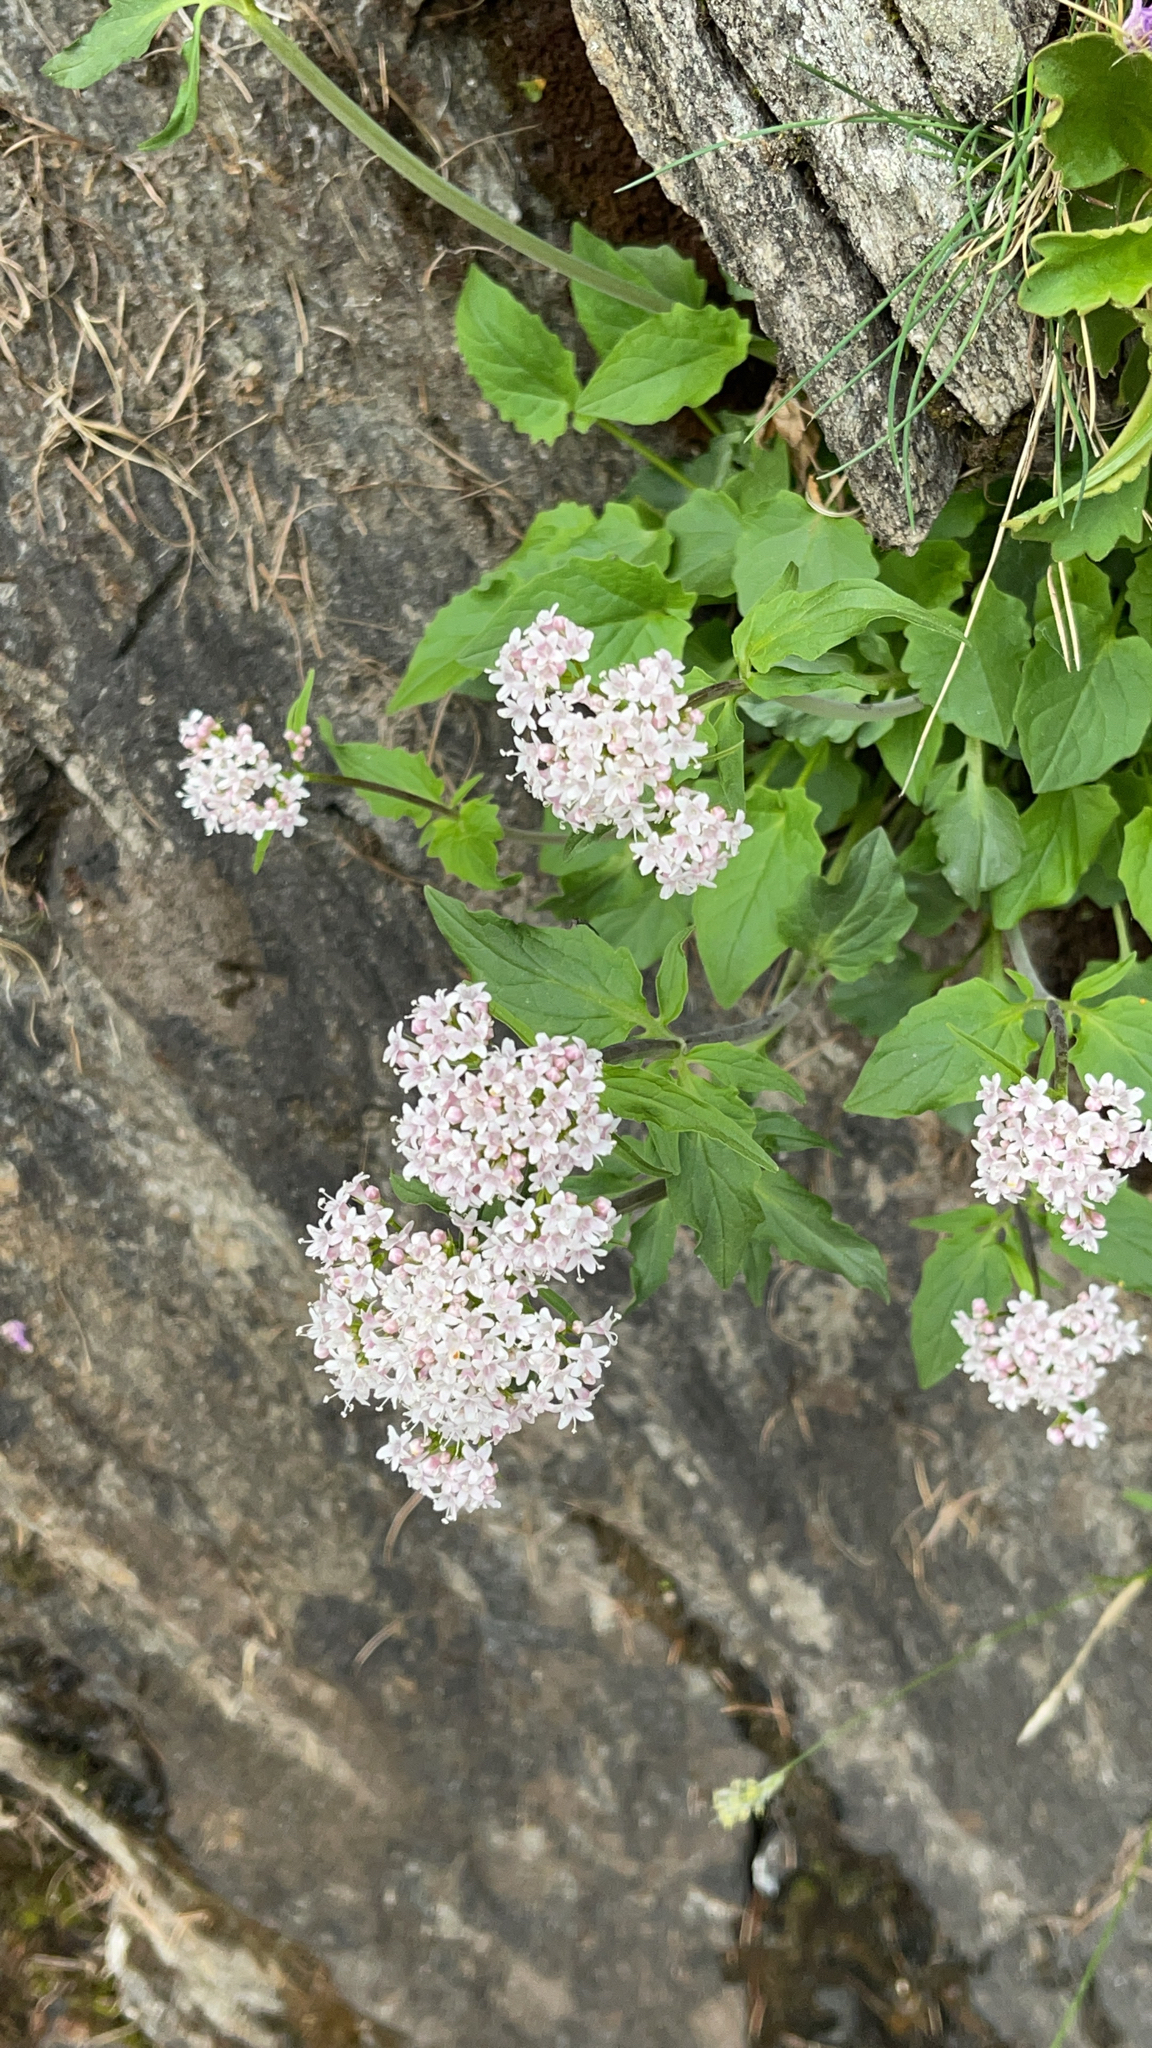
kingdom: Plantae
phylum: Tracheophyta
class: Magnoliopsida
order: Dipsacales
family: Caprifoliaceae
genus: Valeriana
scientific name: Valeriana tripteris
